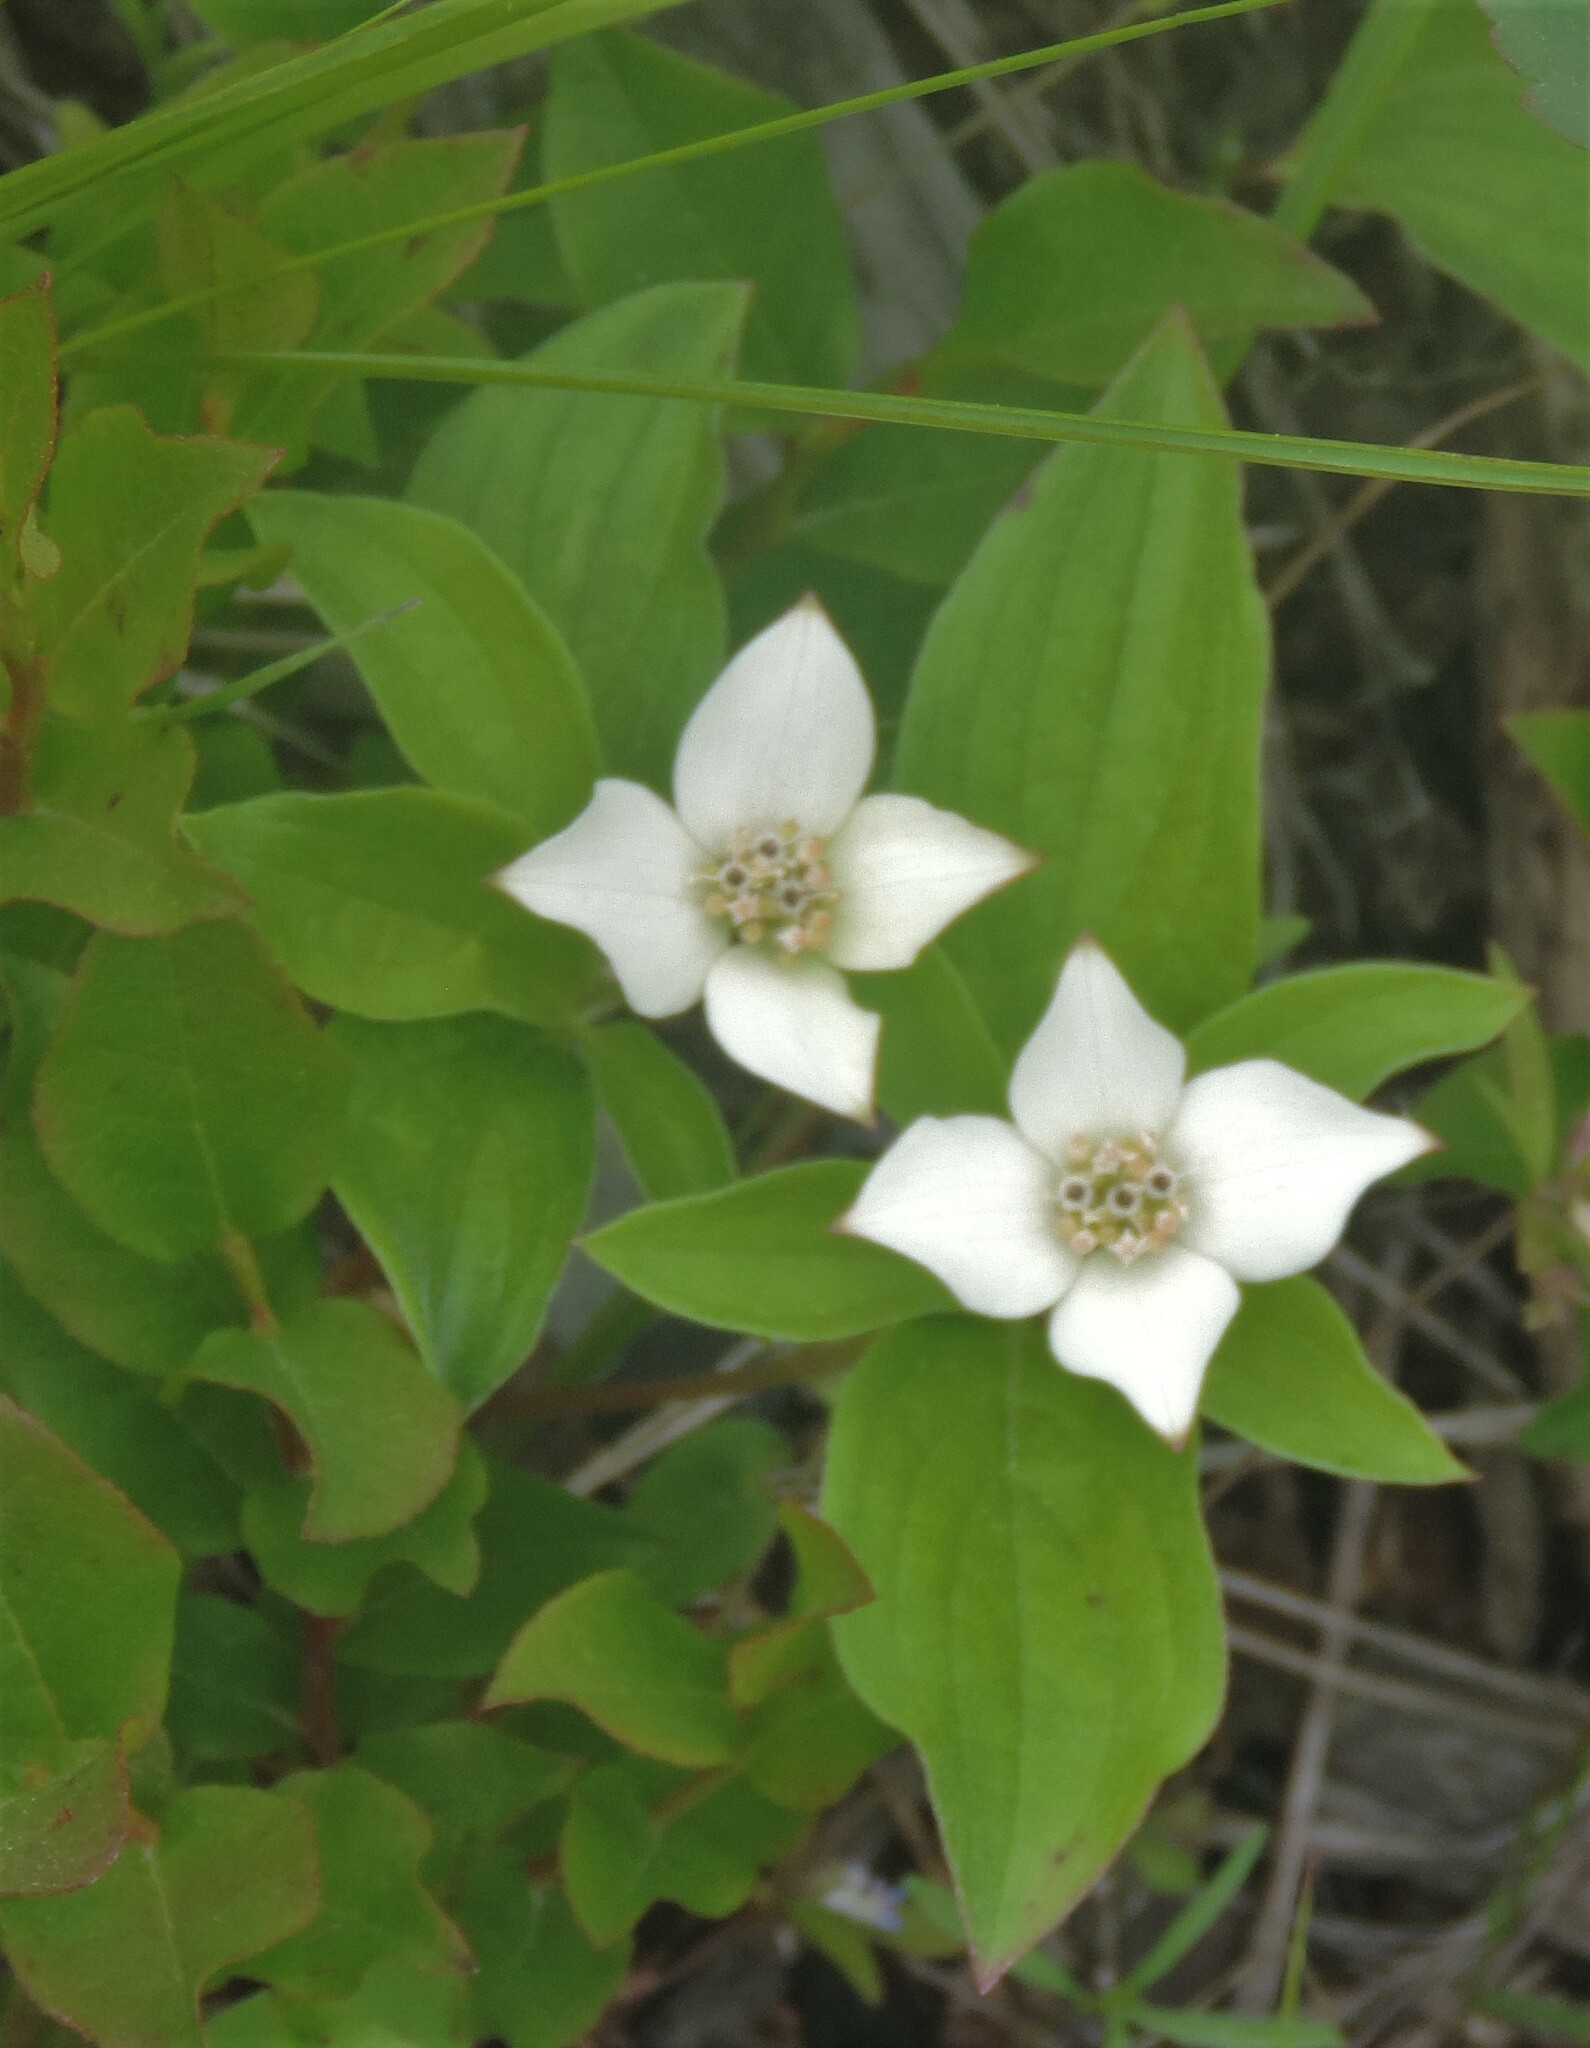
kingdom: Plantae
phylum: Tracheophyta
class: Magnoliopsida
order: Cornales
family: Cornaceae
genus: Cornus
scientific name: Cornus canadensis
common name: Creeping dogwood
